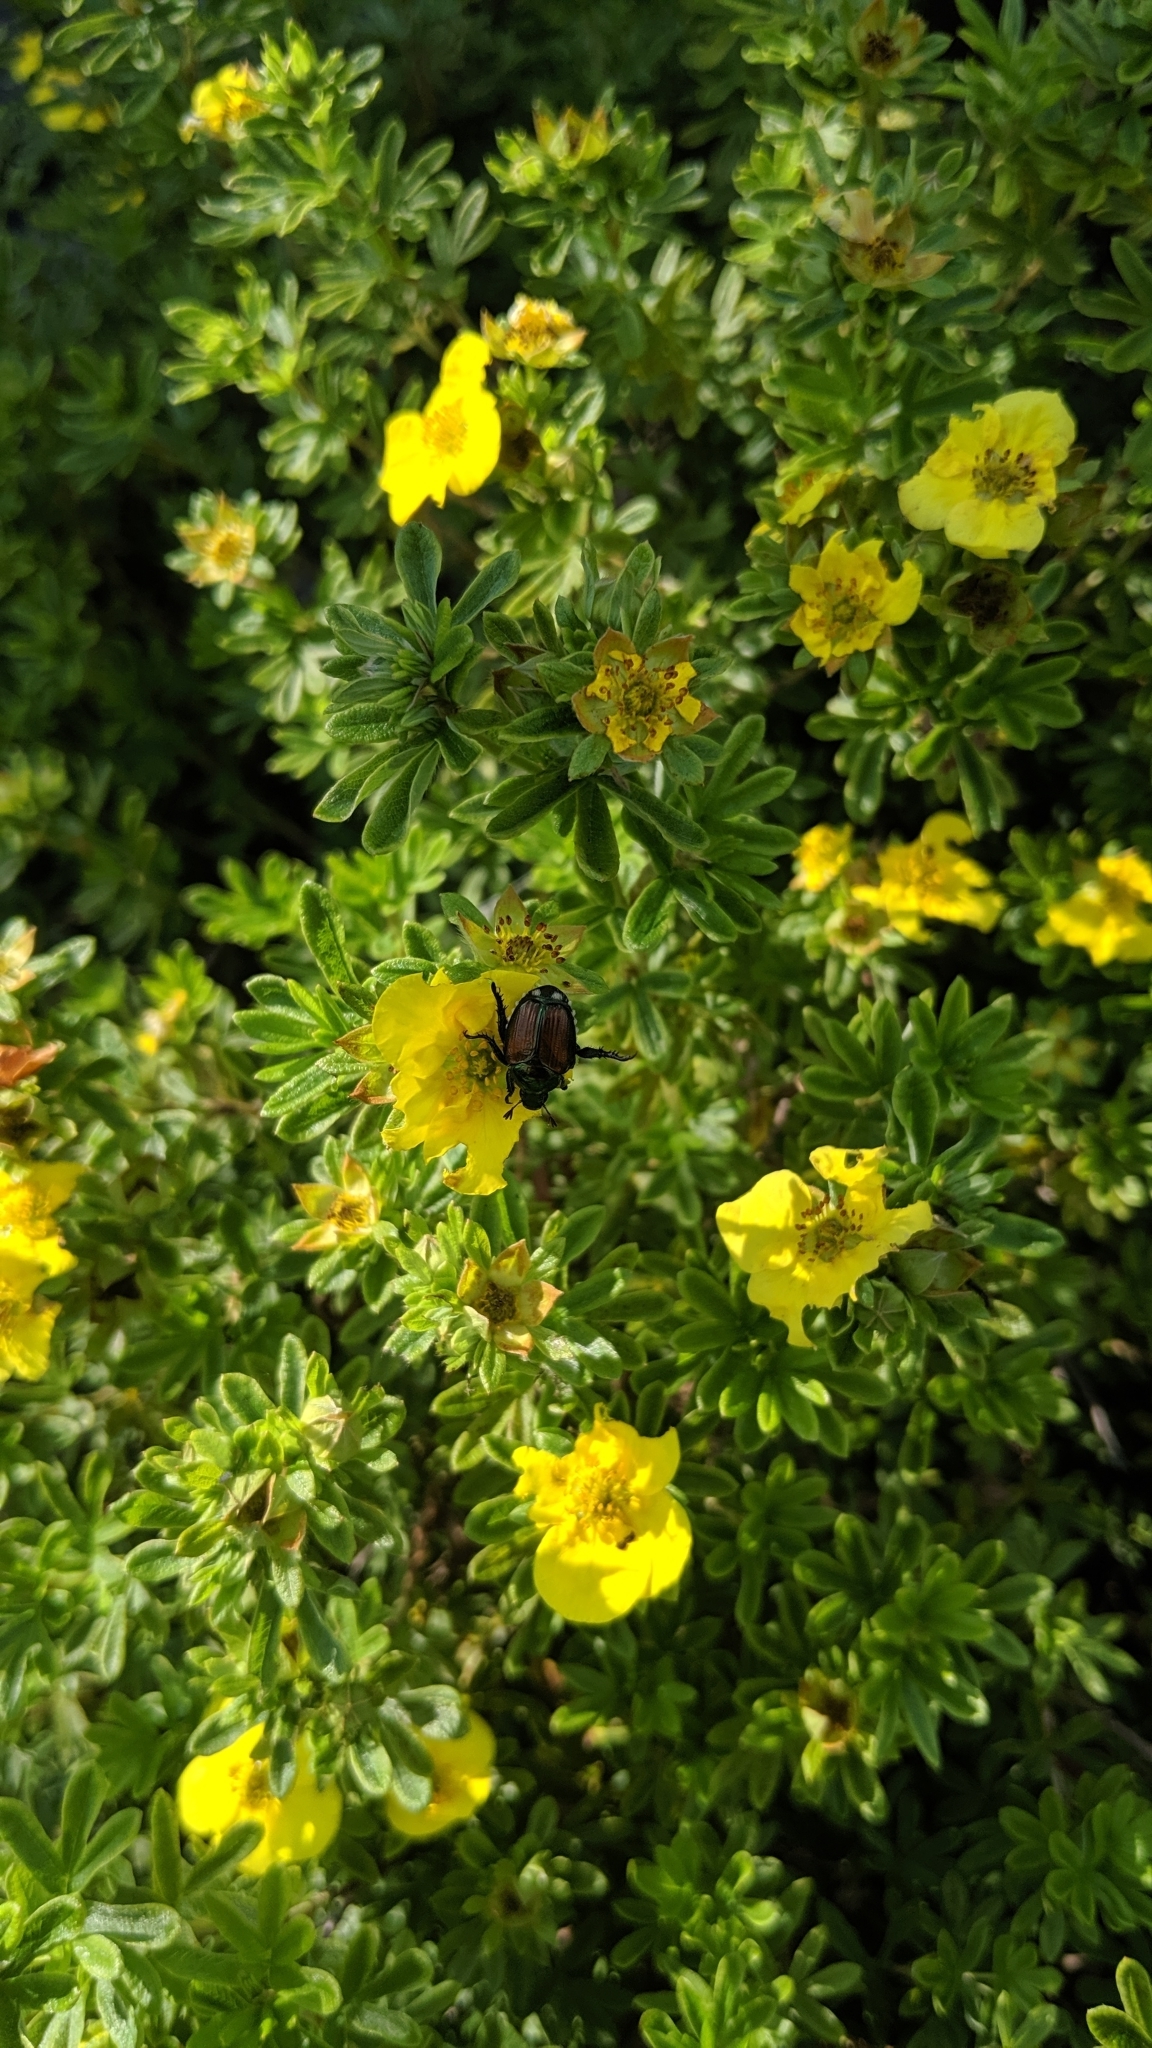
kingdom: Animalia
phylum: Arthropoda
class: Insecta
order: Coleoptera
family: Scarabaeidae
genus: Popillia
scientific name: Popillia japonica
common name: Japanese beetle
